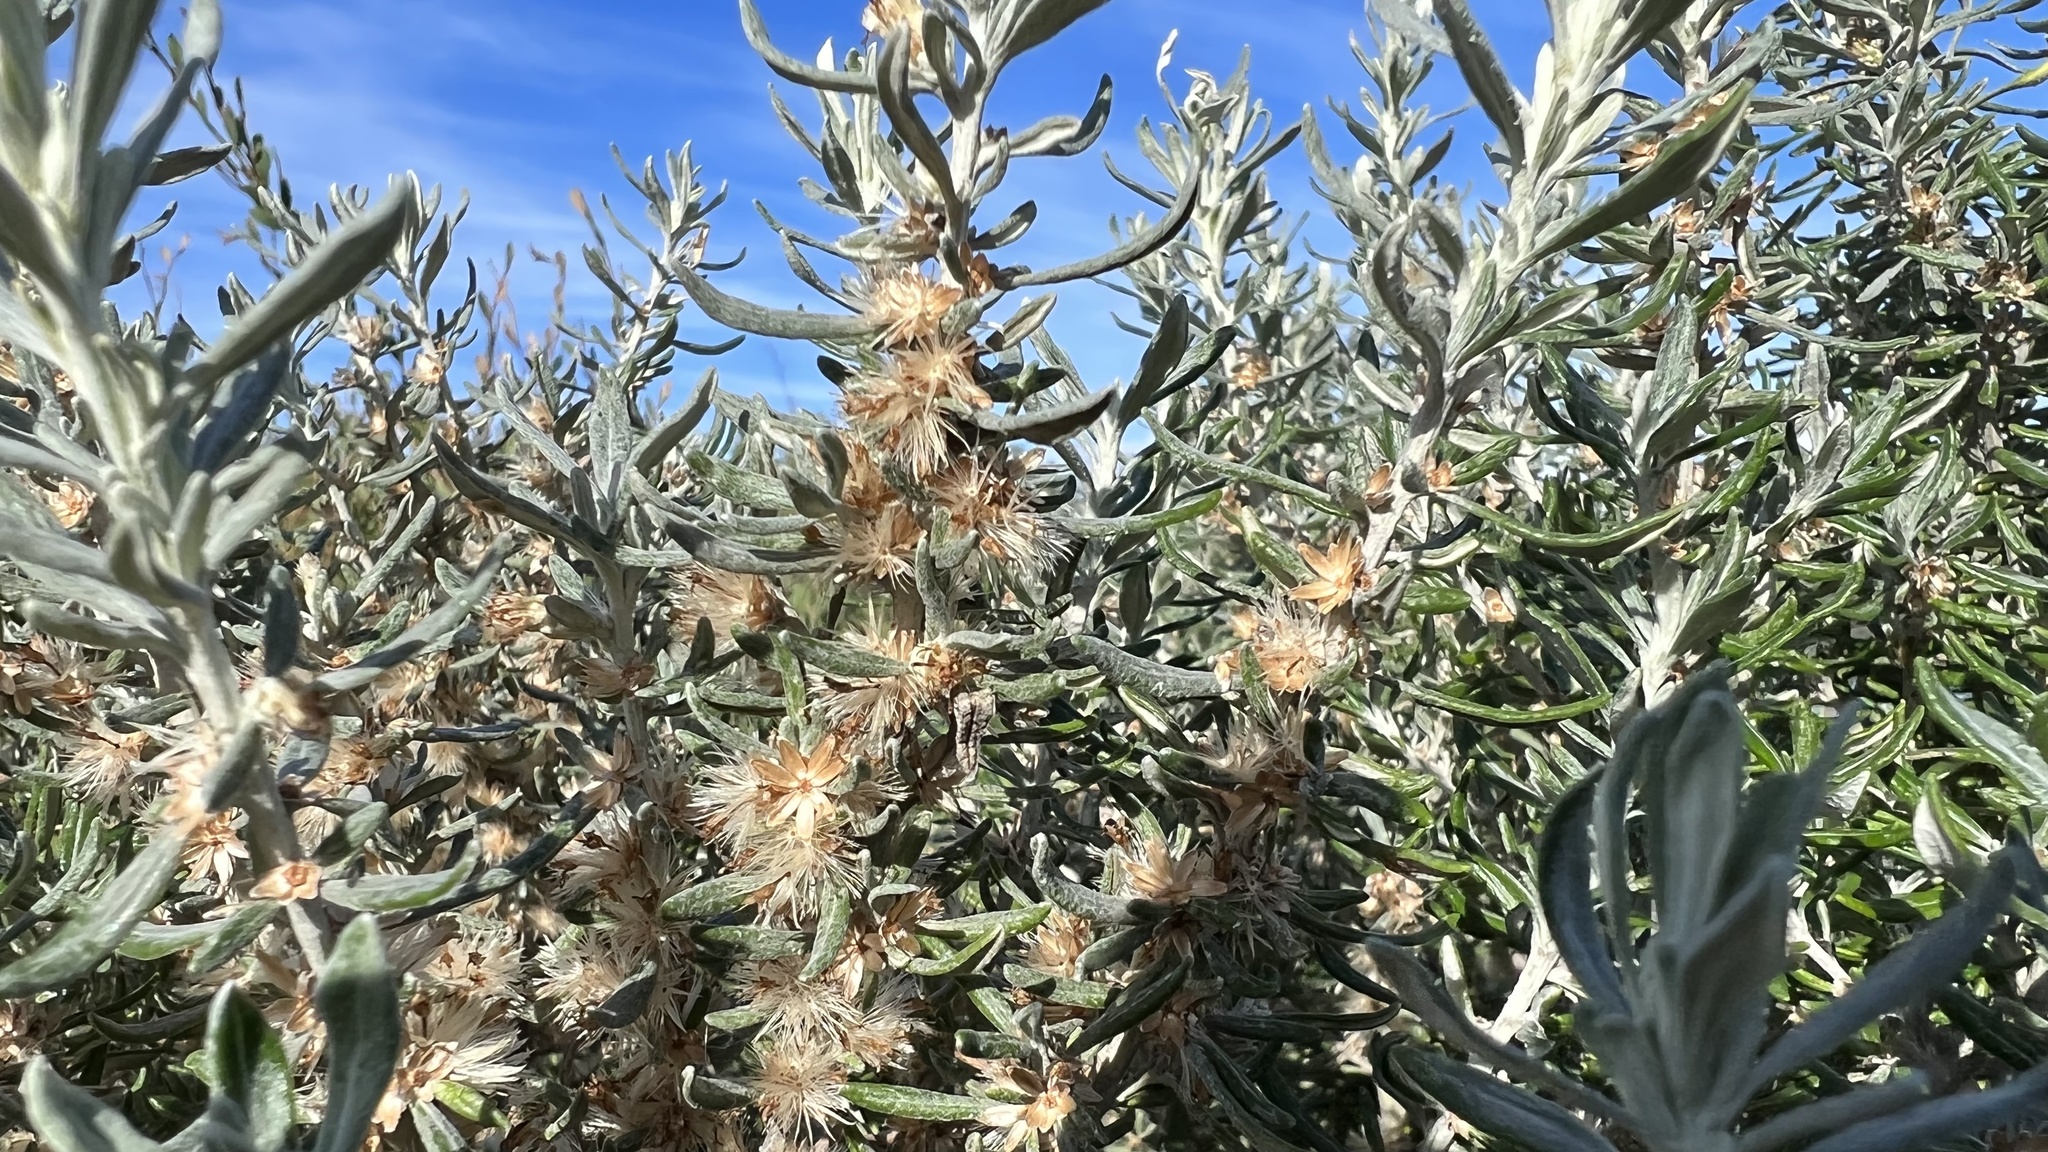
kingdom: Plantae
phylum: Tracheophyta
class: Magnoliopsida
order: Asterales
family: Asteraceae
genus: Olearia
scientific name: Olearia axillaris
